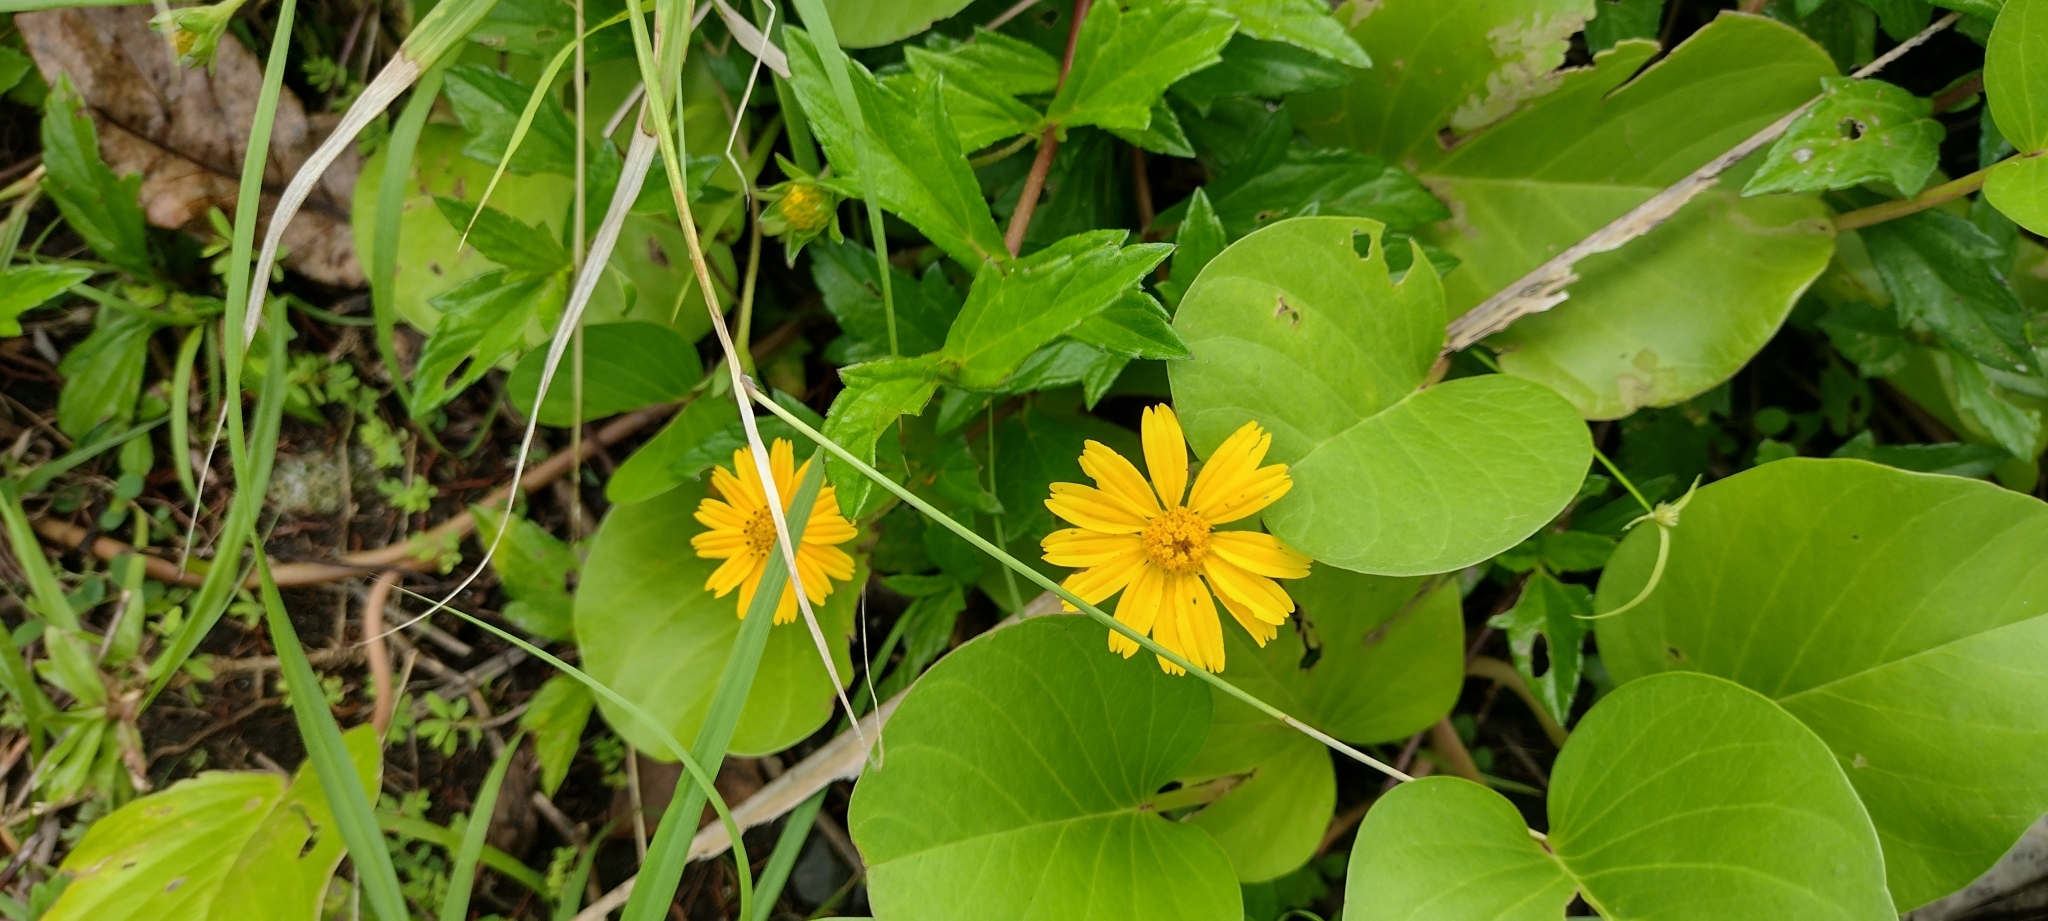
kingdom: Plantae
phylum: Tracheophyta
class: Magnoliopsida
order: Asterales
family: Asteraceae
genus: Sphagneticola
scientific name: Sphagneticola trilobata
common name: Bay biscayne creeping-oxeye
